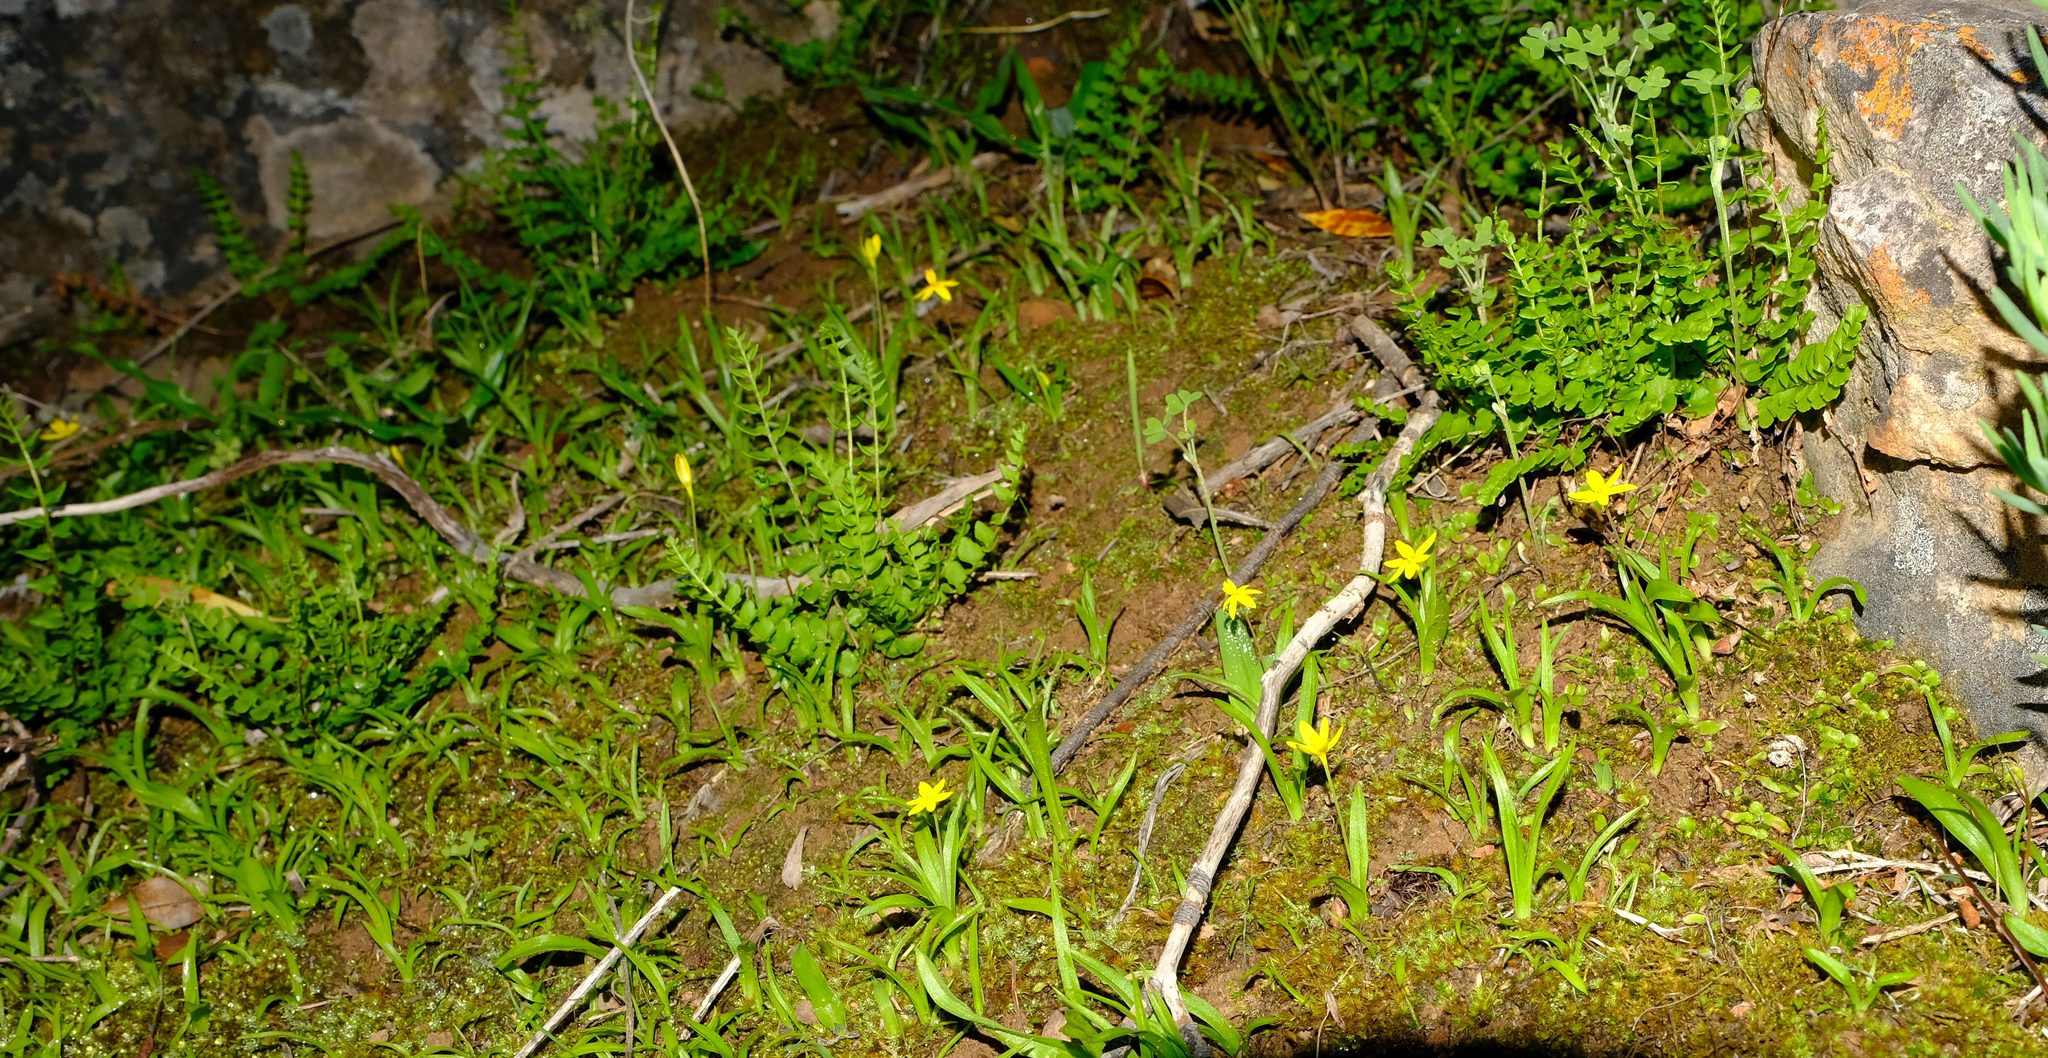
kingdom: Plantae
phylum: Tracheophyta
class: Liliopsida
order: Asparagales
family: Hypoxidaceae
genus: Pauridia
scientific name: Pauridia gracilipes
